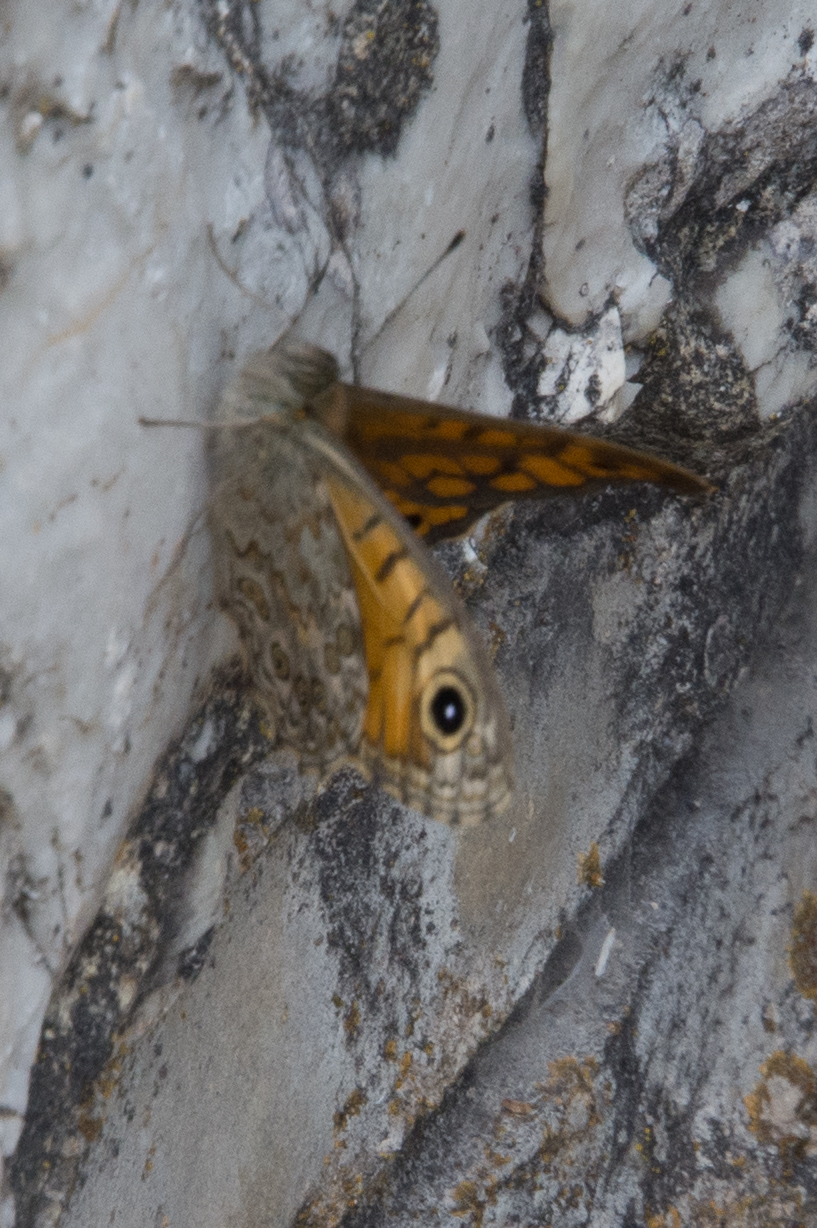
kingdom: Animalia
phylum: Arthropoda
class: Insecta
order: Lepidoptera
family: Nymphalidae
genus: Pararge
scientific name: Pararge Lasiommata megera
